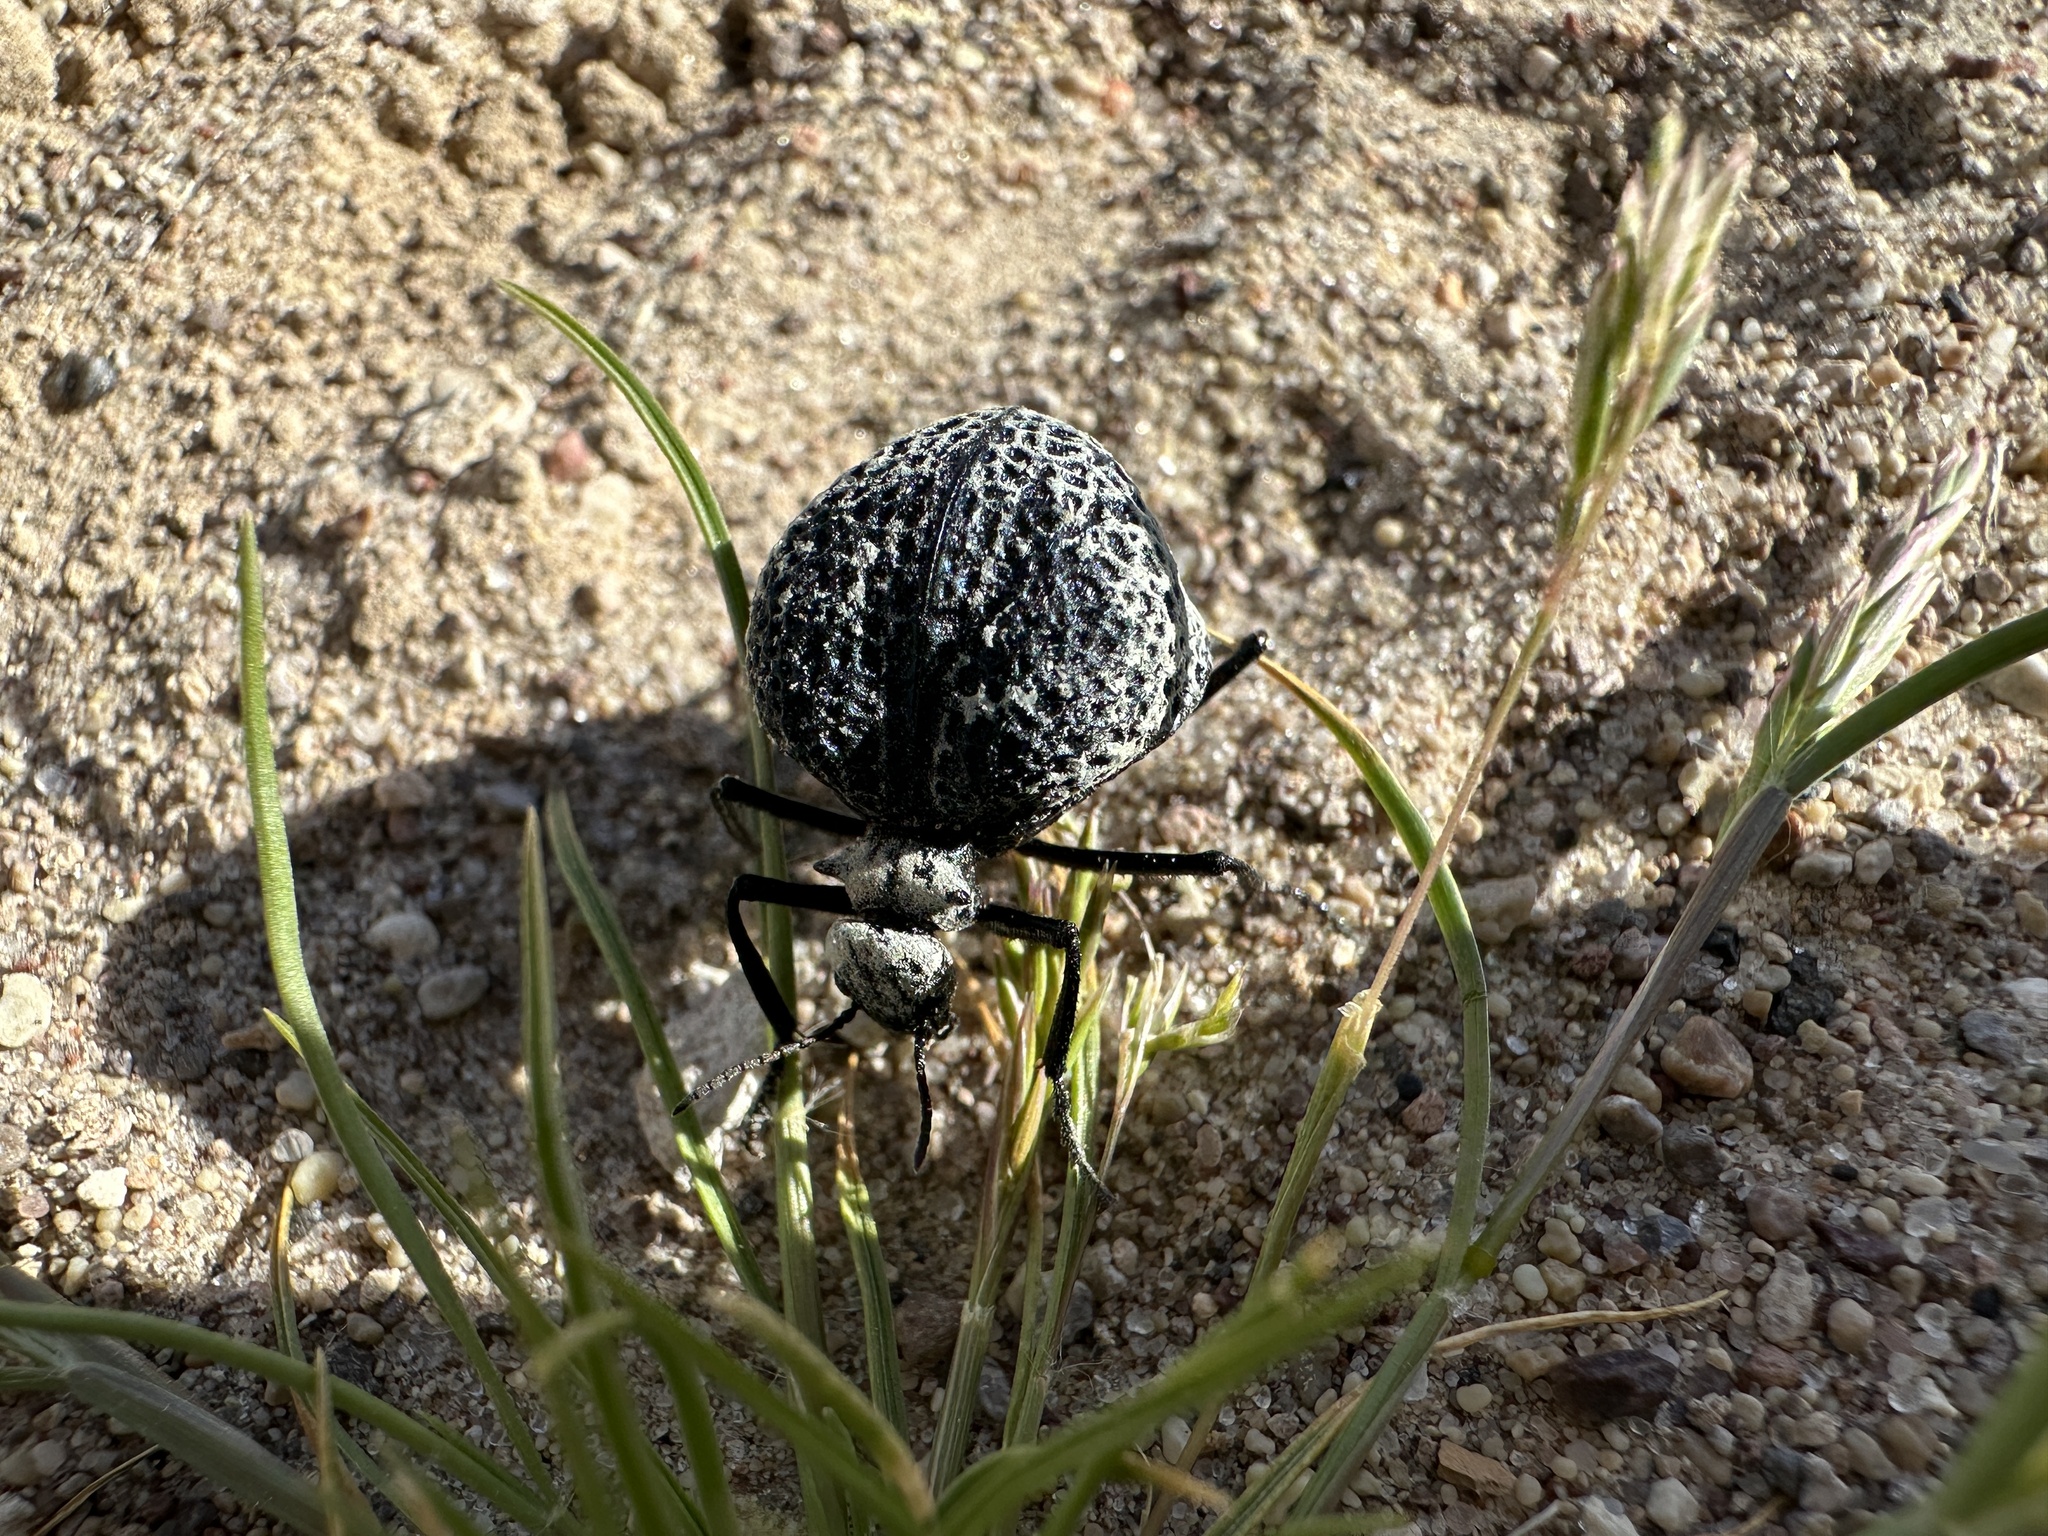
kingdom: Animalia
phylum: Arthropoda
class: Insecta
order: Coleoptera
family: Meloidae
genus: Cysteodemus
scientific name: Cysteodemus armatus
